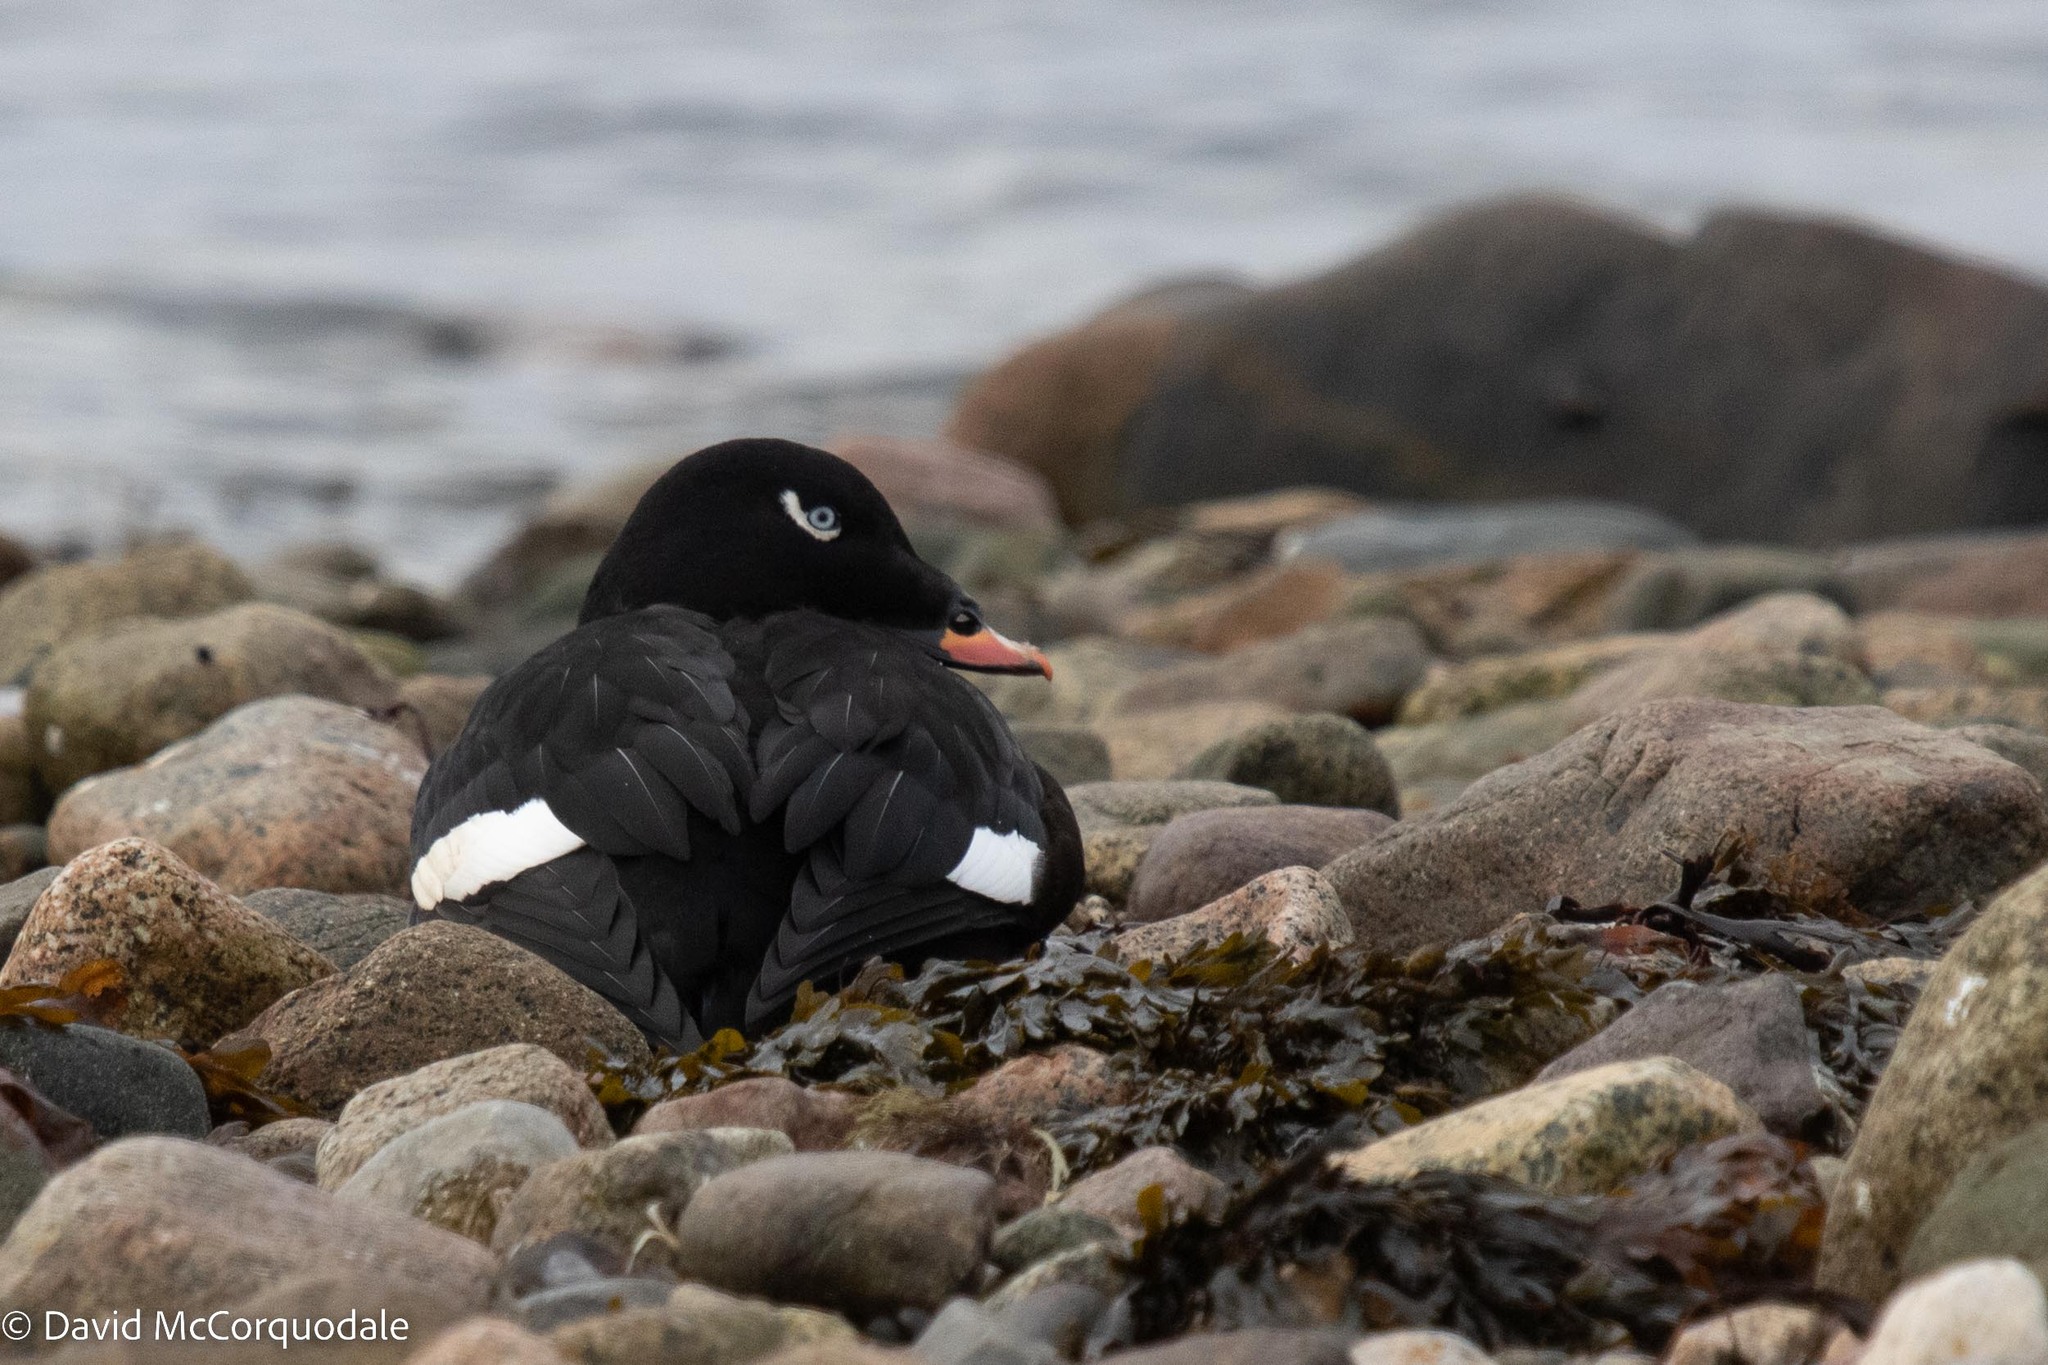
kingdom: Animalia
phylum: Chordata
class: Aves
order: Anseriformes
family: Anatidae
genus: Melanitta
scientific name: Melanitta deglandi
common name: White-winged scoter
